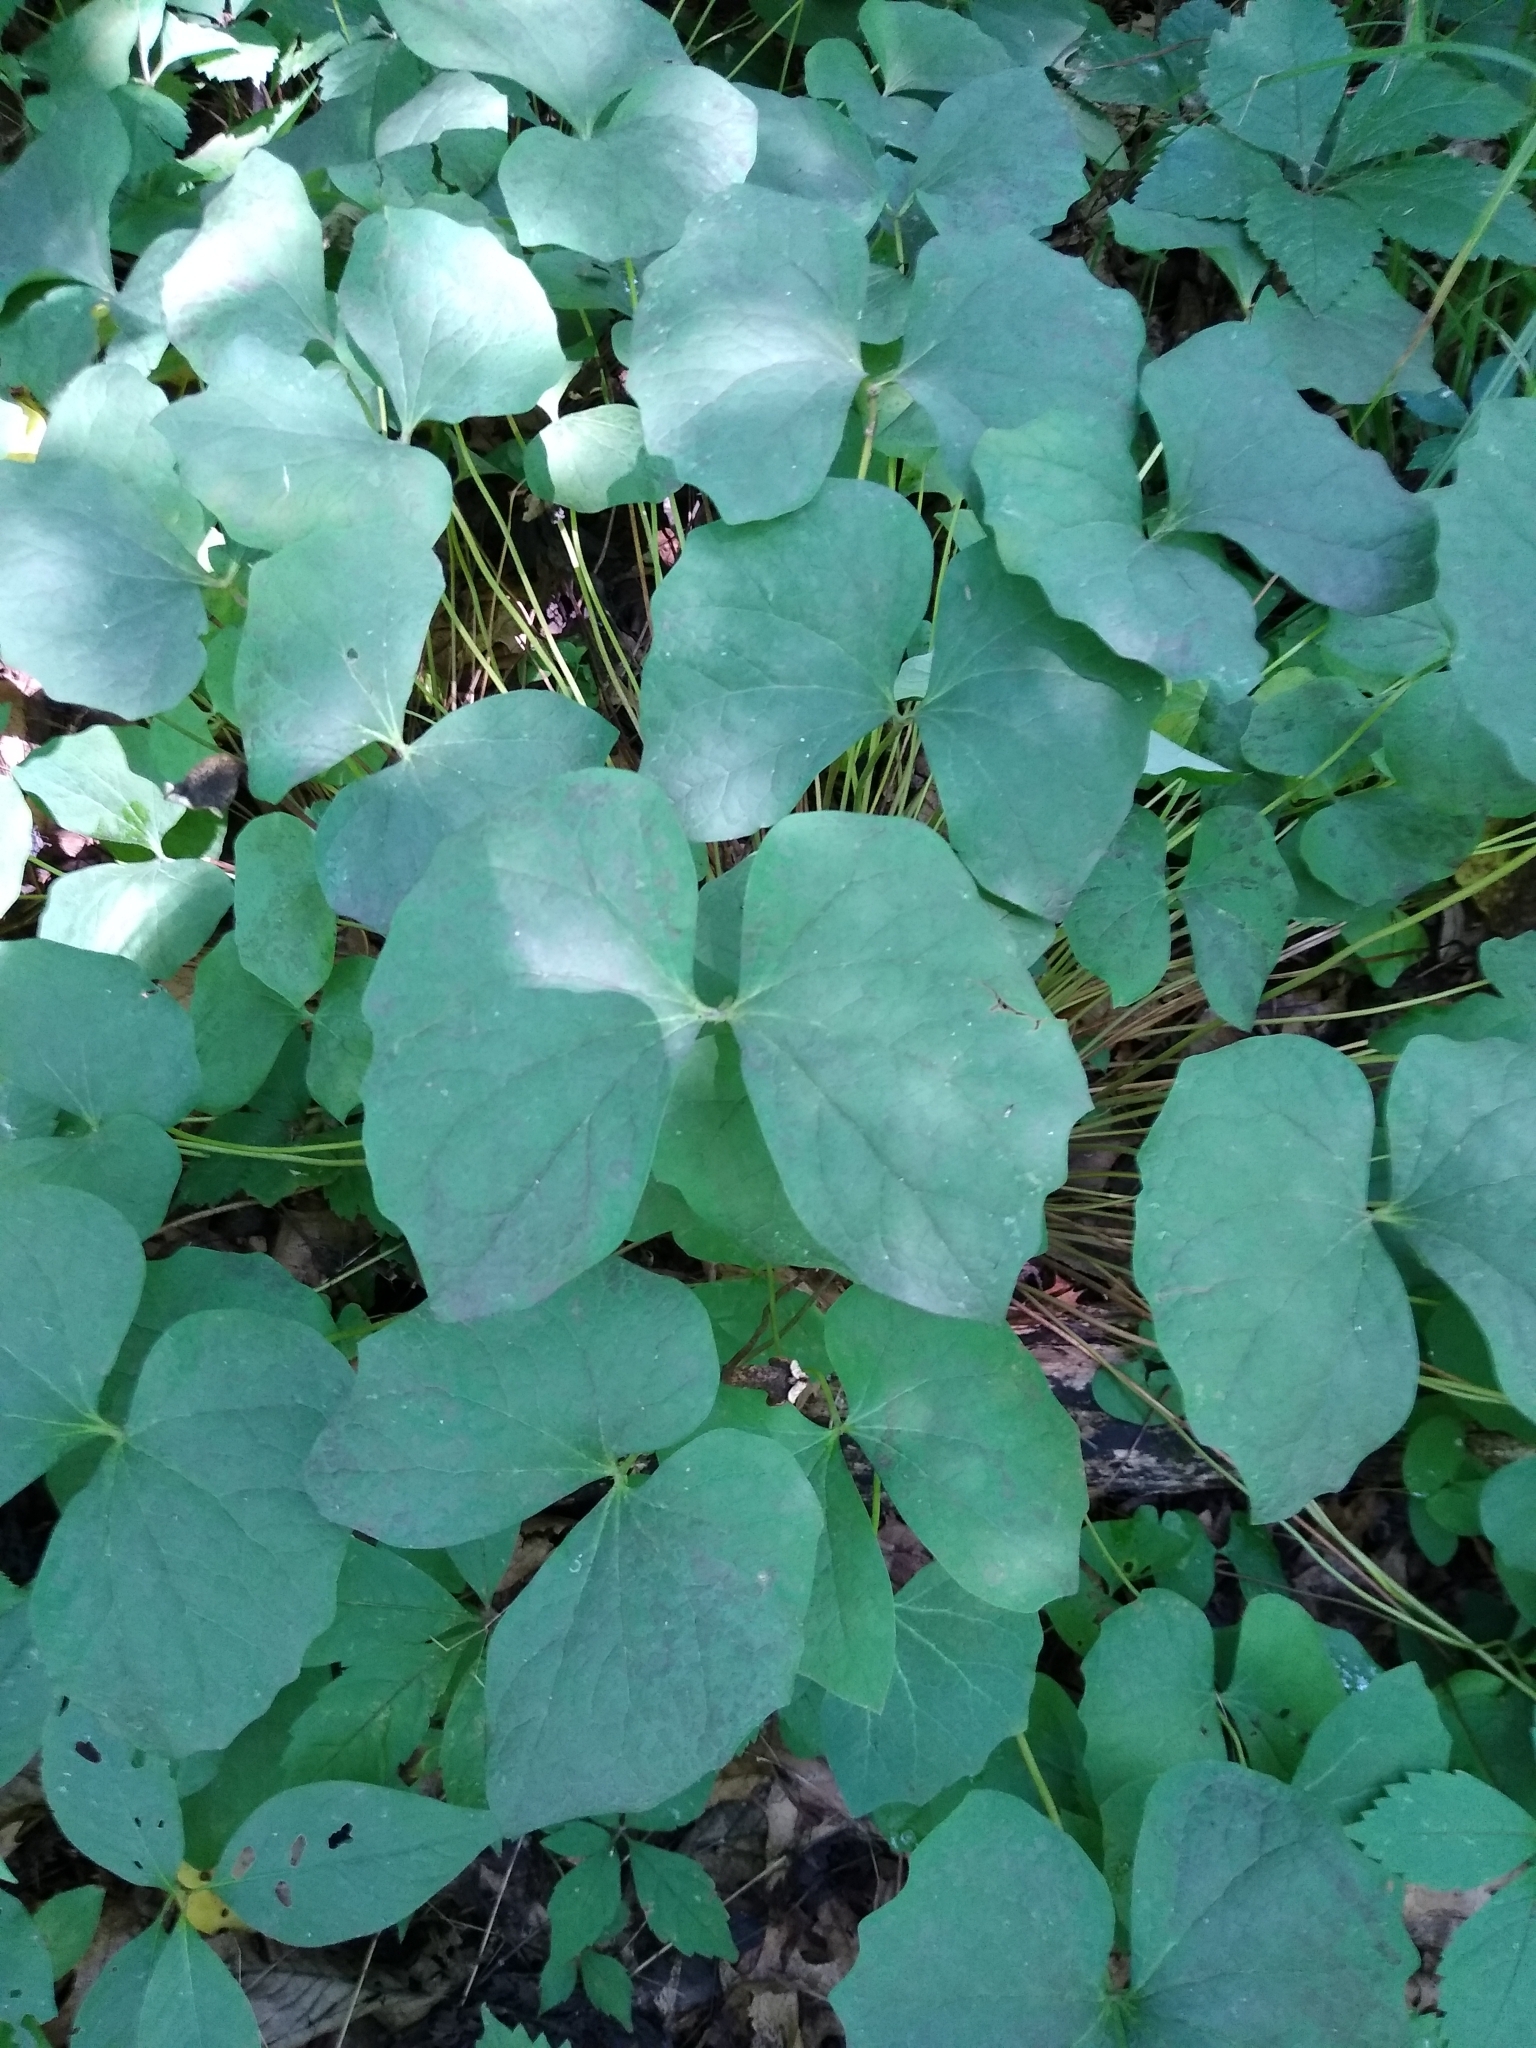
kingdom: Plantae
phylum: Tracheophyta
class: Magnoliopsida
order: Ranunculales
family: Berberidaceae
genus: Jeffersonia
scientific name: Jeffersonia diphylla
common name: Rheumatism-root
